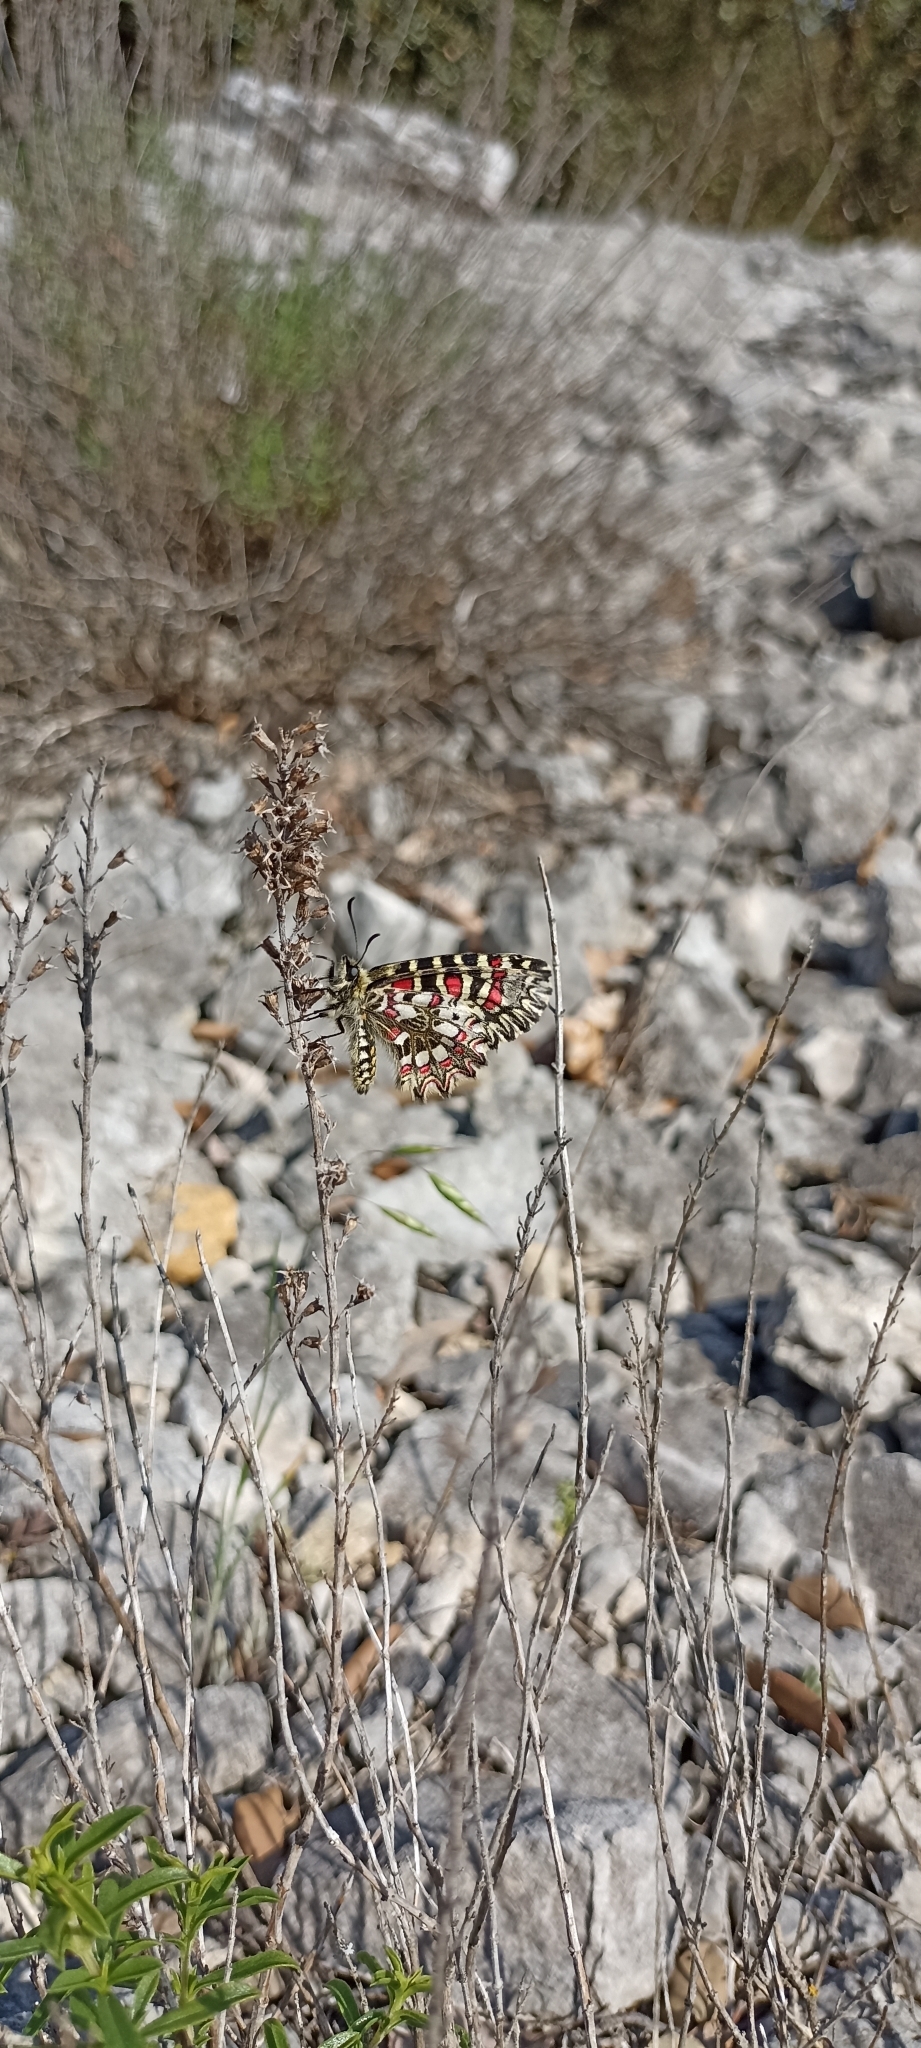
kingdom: Animalia
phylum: Arthropoda
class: Insecta
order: Lepidoptera
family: Papilionidae
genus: Zerynthia
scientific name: Zerynthia rumina
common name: Spanish festoon
